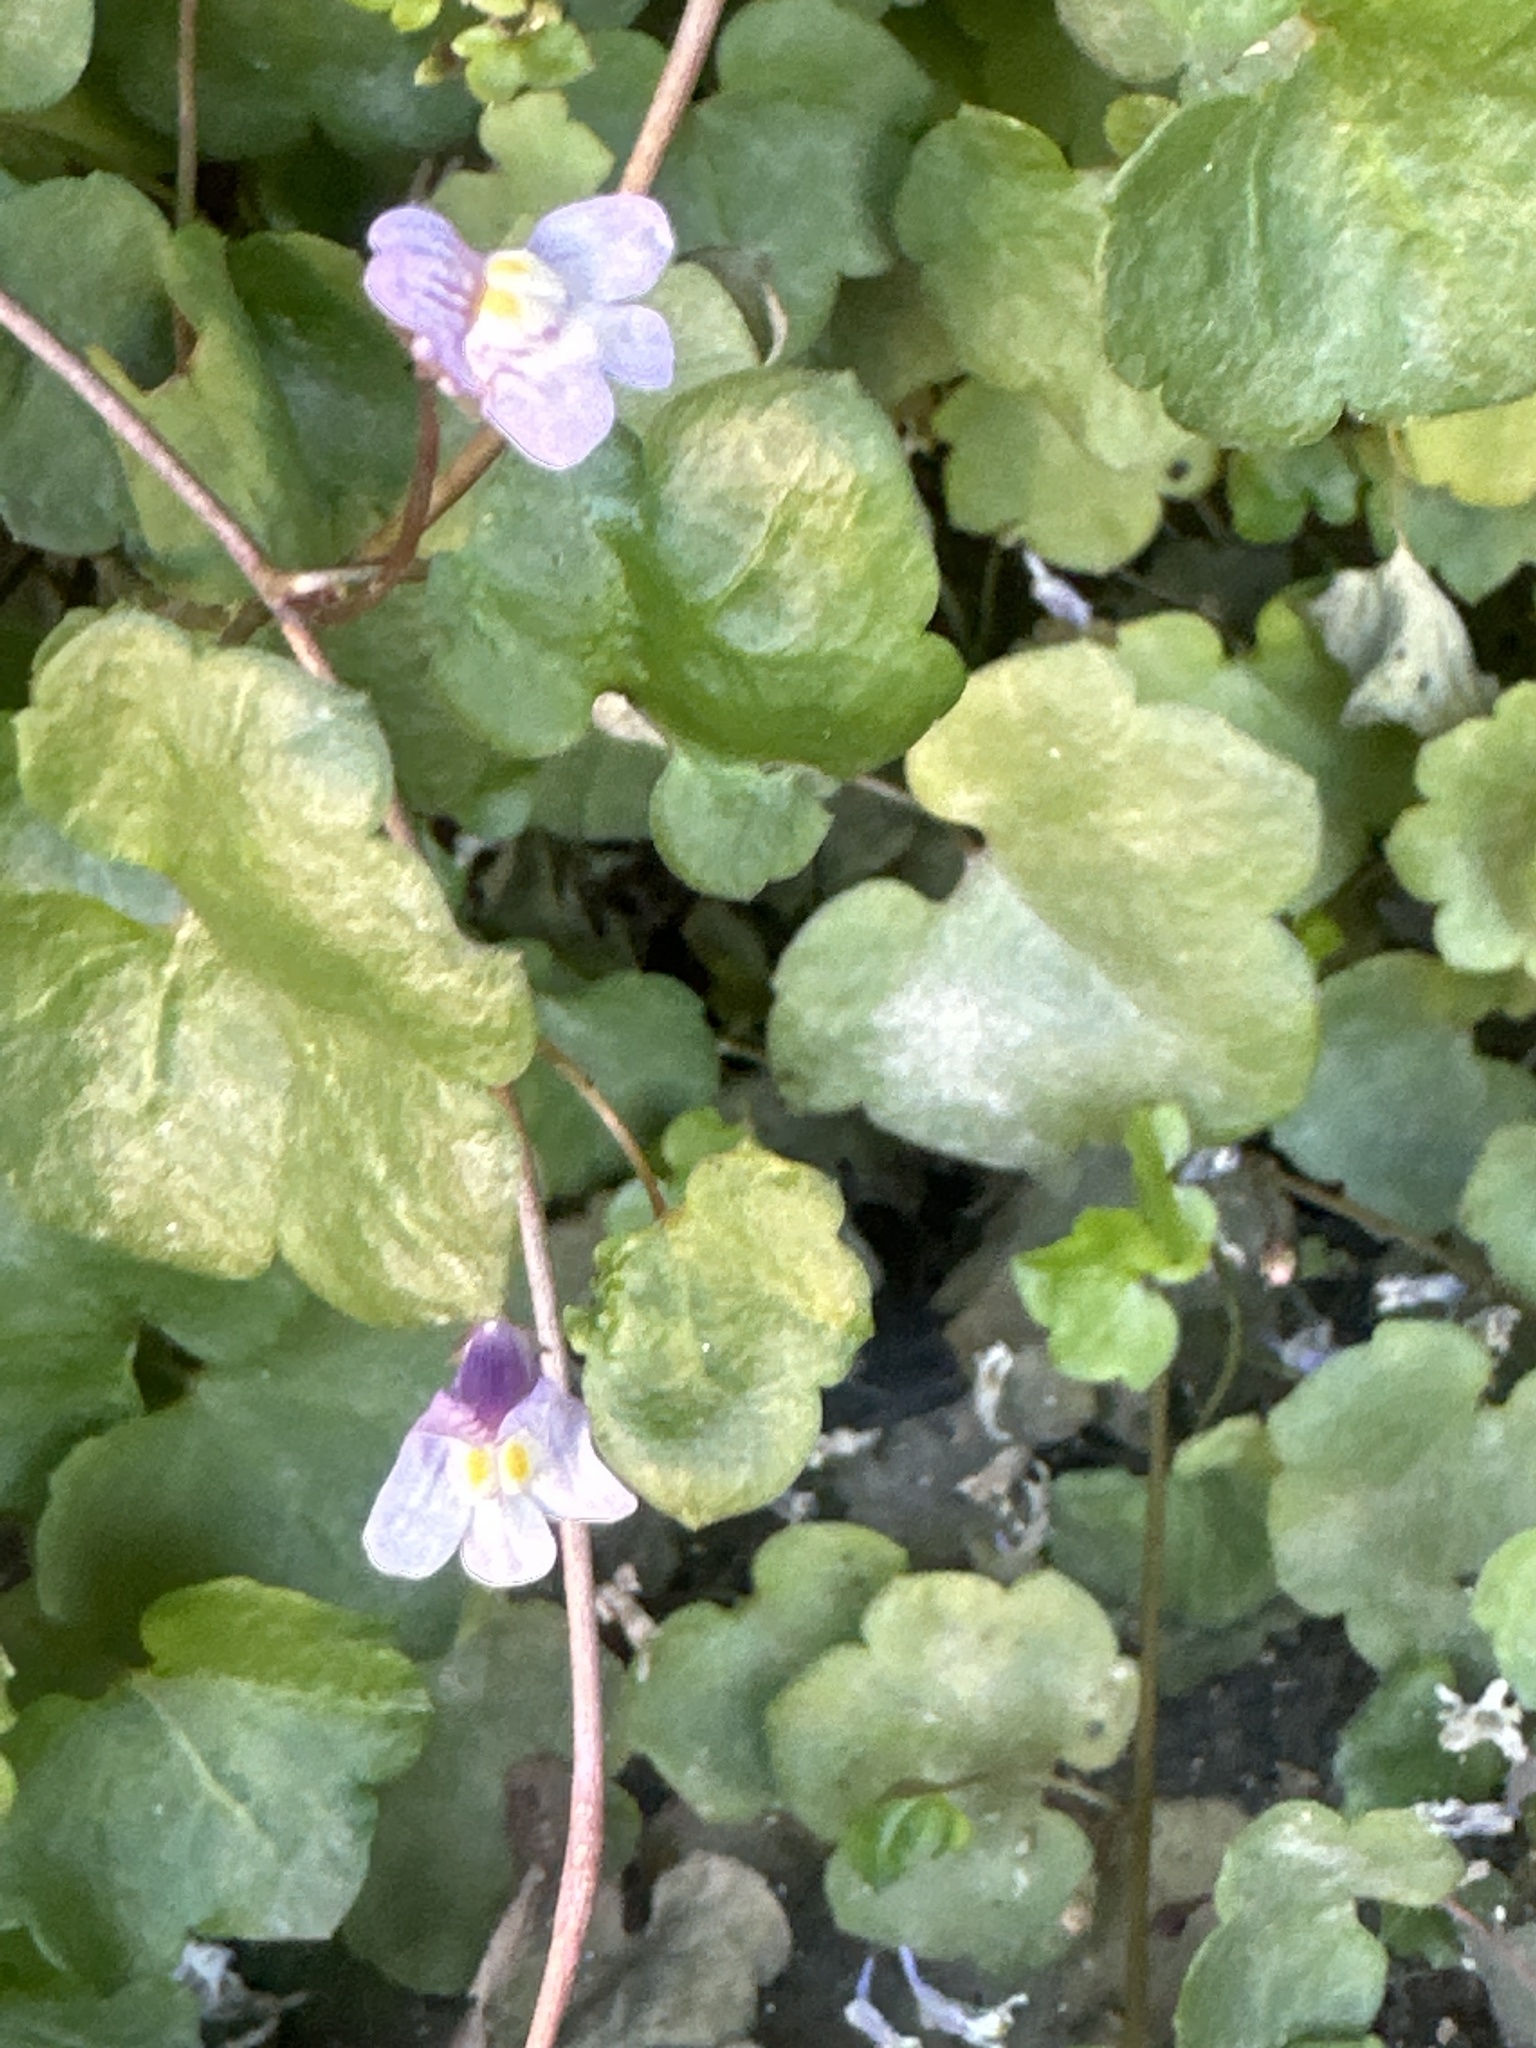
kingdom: Plantae
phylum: Tracheophyta
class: Magnoliopsida
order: Lamiales
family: Plantaginaceae
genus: Cymbalaria
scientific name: Cymbalaria muralis
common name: Ivy-leaved toadflax
